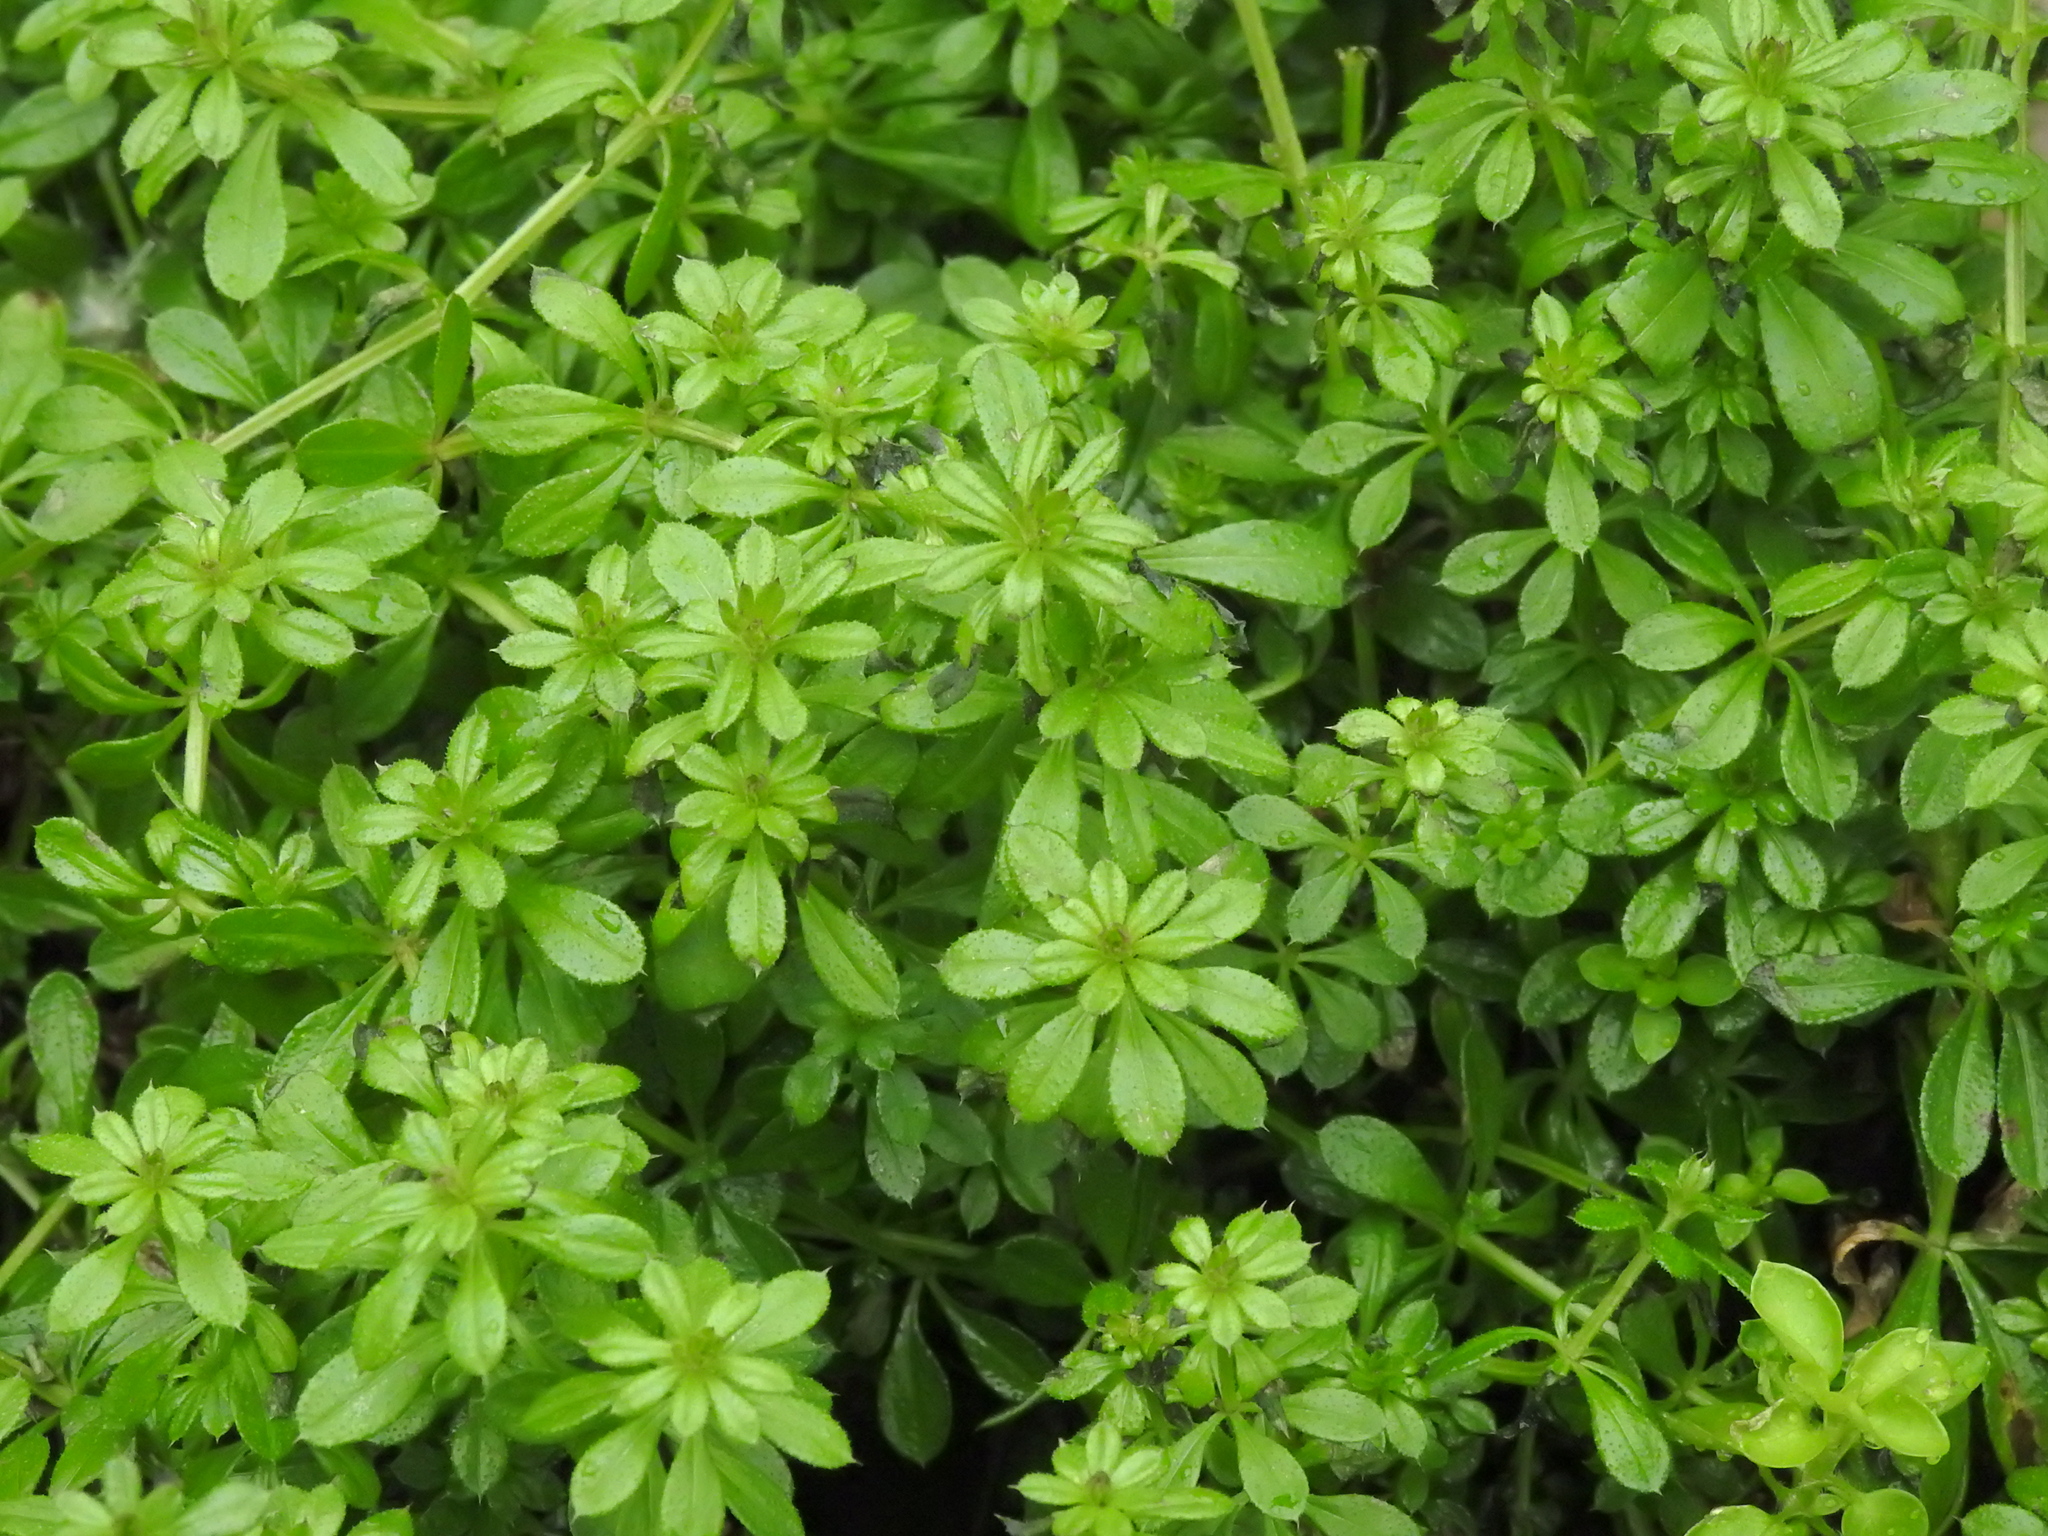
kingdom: Plantae
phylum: Tracheophyta
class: Magnoliopsida
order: Gentianales
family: Rubiaceae
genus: Galium
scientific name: Galium aparine
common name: Cleavers
